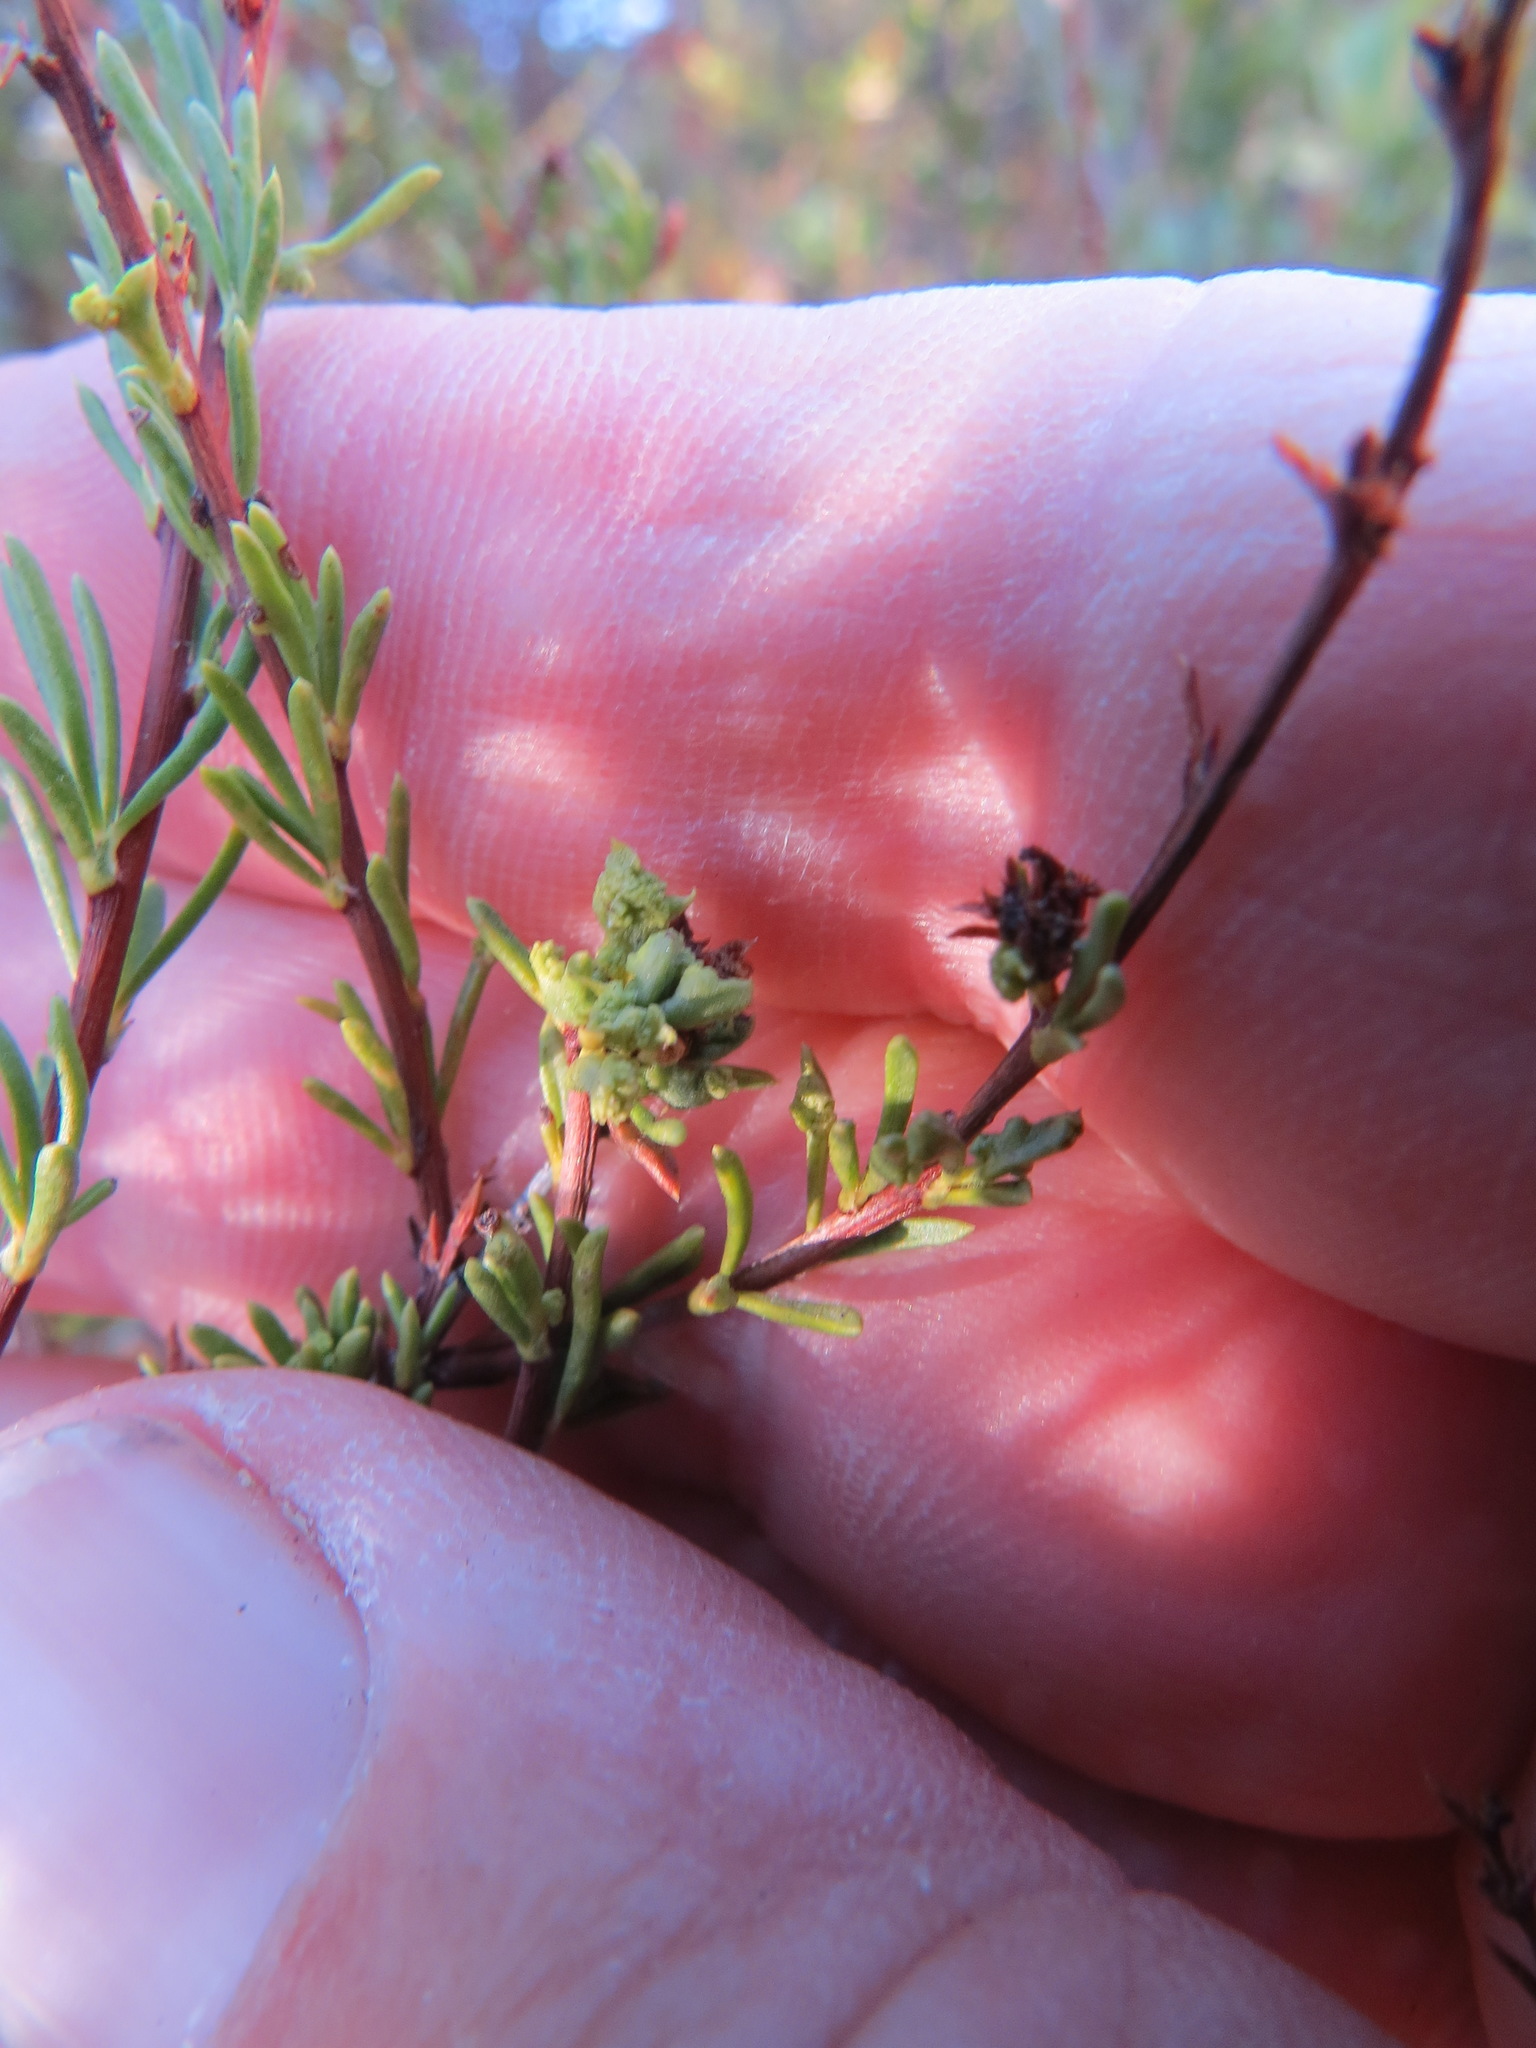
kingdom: Animalia
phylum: Arthropoda
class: Arachnida
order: Trombidiformes
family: Eriophyidae
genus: Eriophyes
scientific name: Eriophyes
